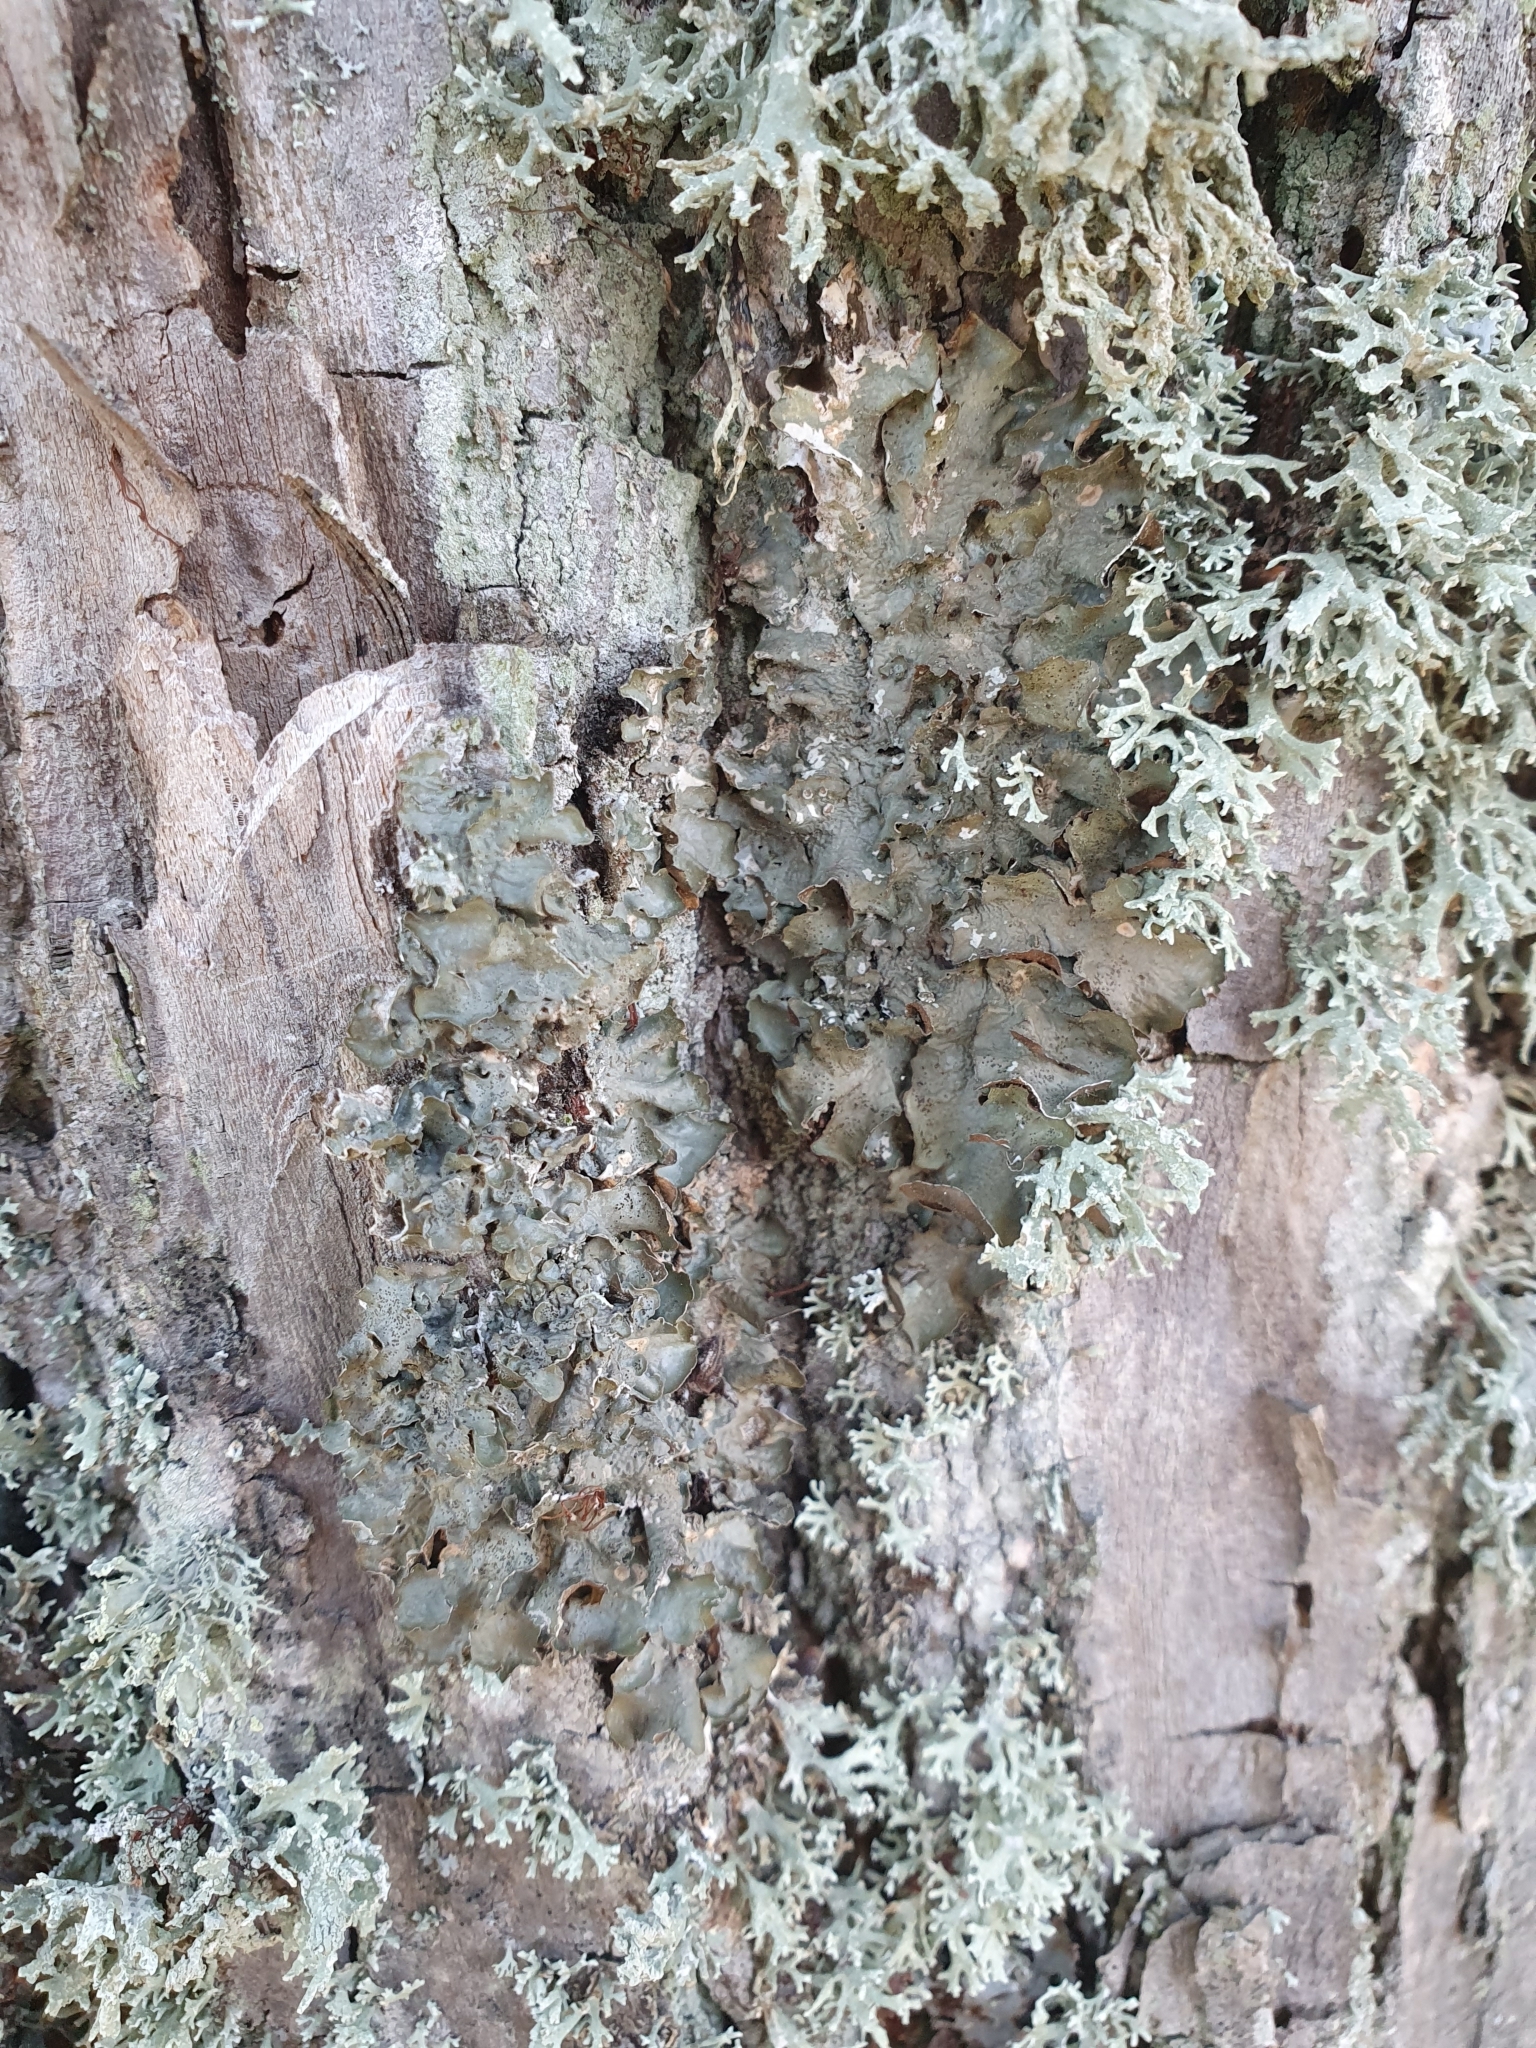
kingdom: Fungi
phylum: Ascomycota
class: Lecanoromycetes
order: Lecanorales
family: Parmeliaceae
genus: Pleurosticta
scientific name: Pleurosticta acetabulum
